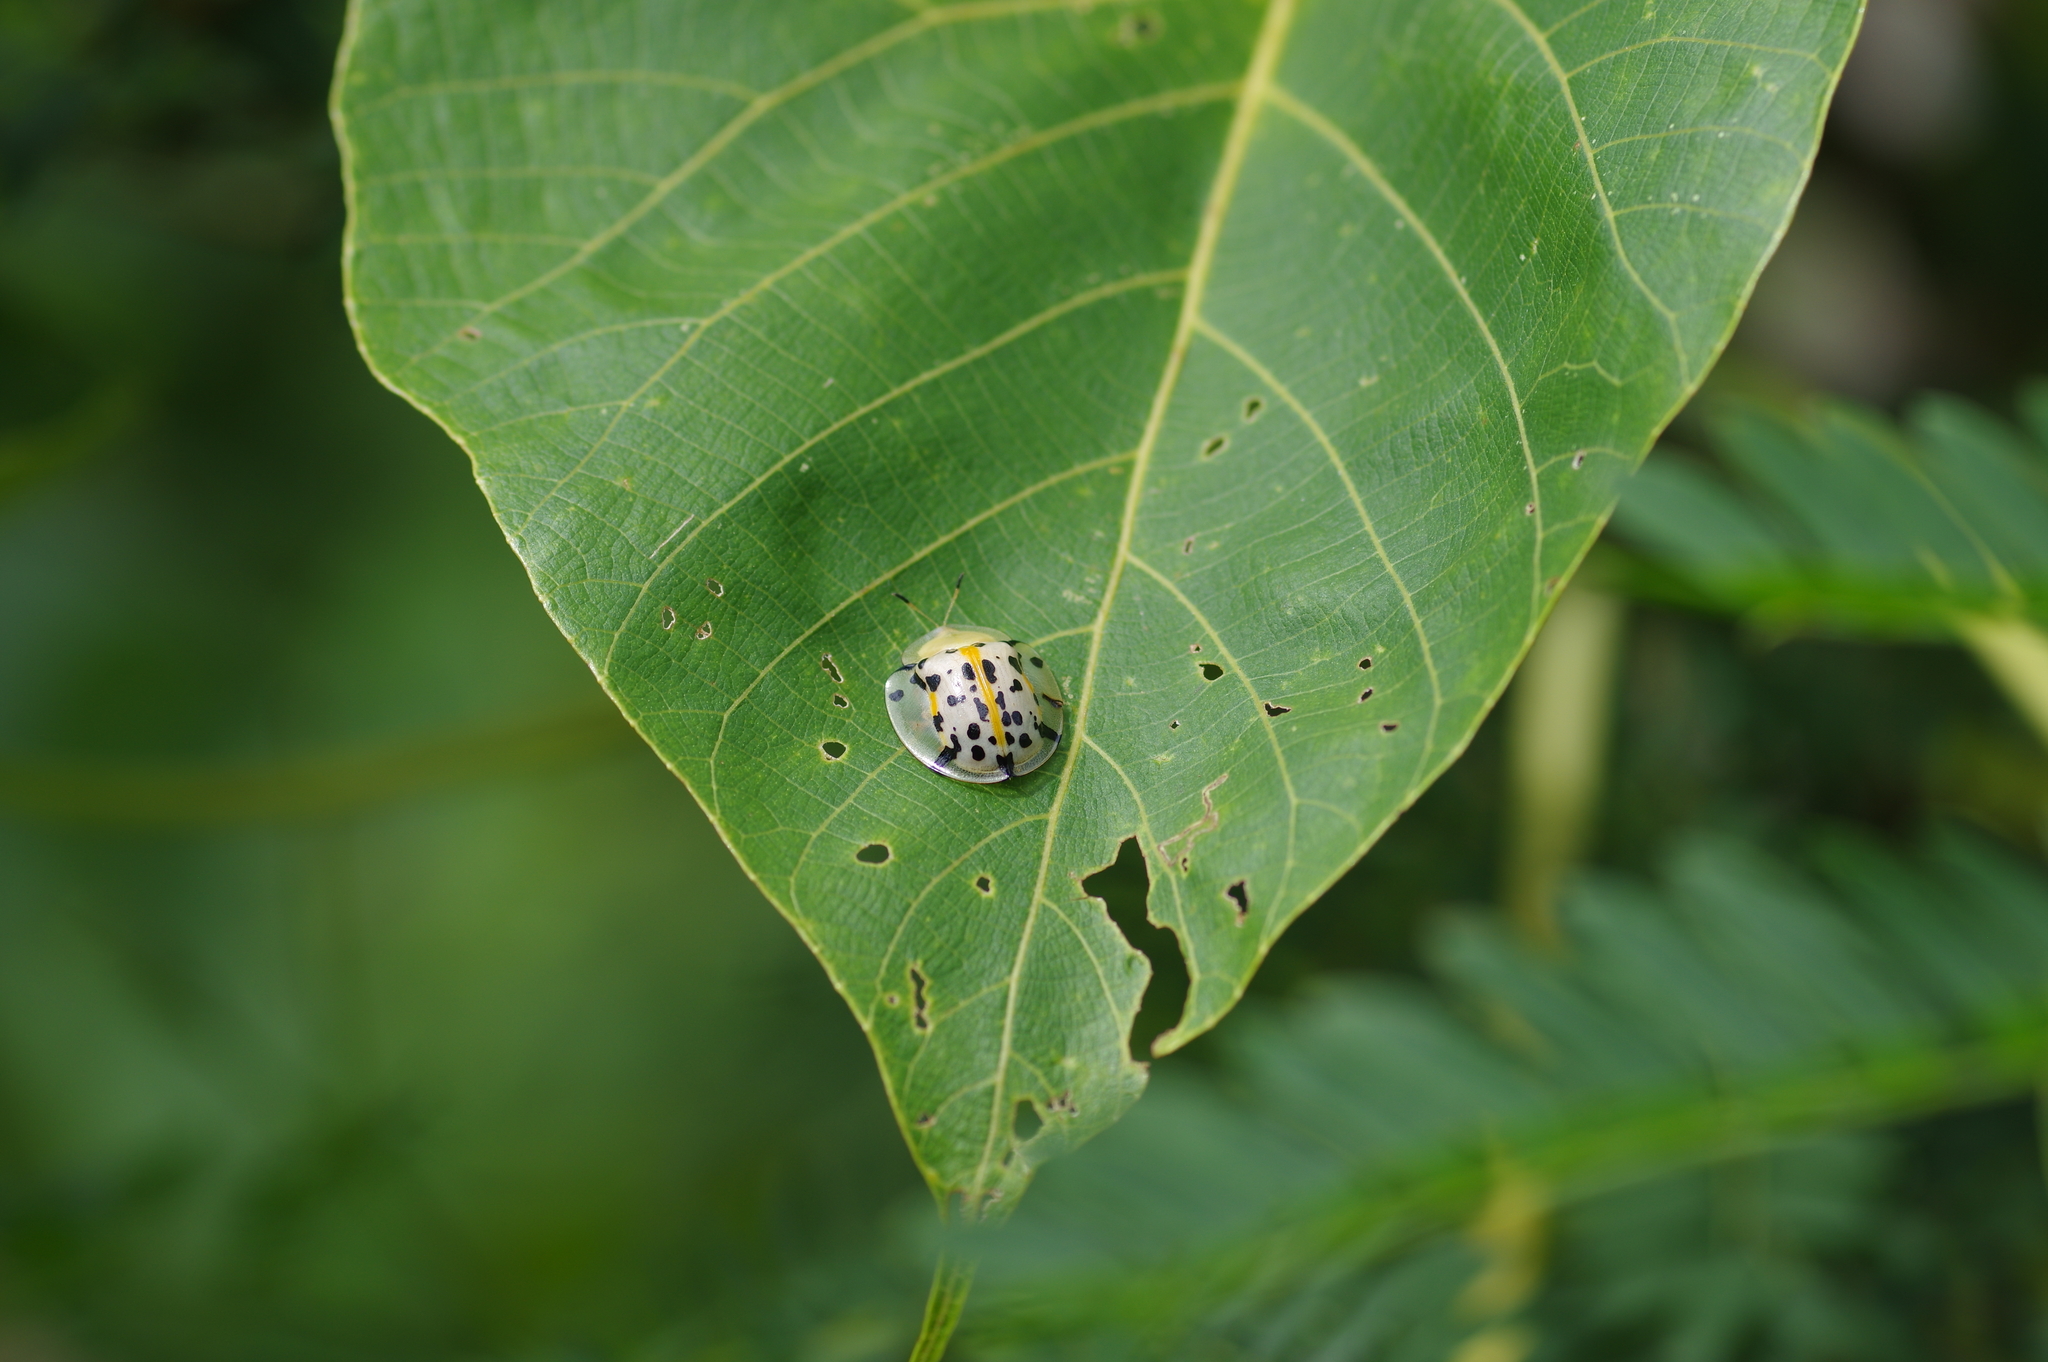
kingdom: Animalia
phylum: Arthropoda
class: Insecta
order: Coleoptera
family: Chrysomelidae
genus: Aspidimorpha
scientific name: Aspidimorpha miliaris
